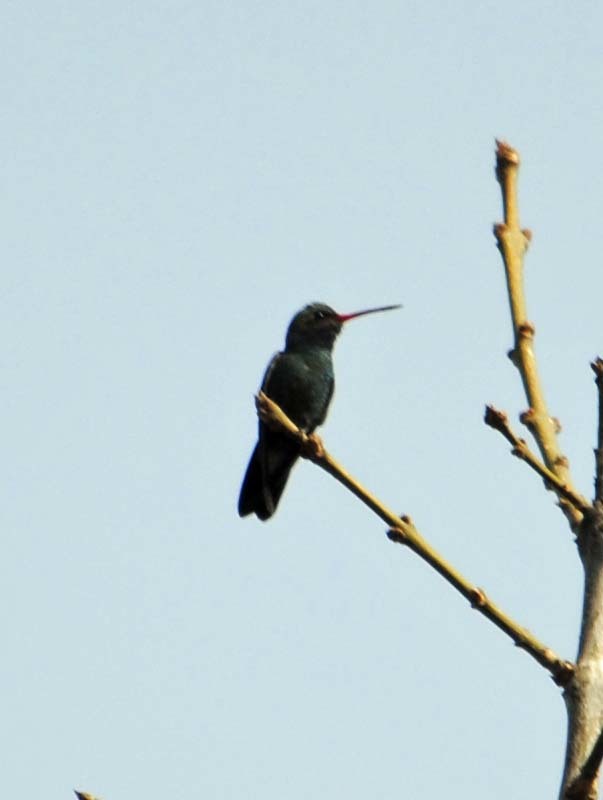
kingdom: Animalia
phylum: Chordata
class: Aves
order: Apodiformes
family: Trochilidae
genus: Cynanthus
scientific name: Cynanthus latirostris
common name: Broad-billed hummingbird
